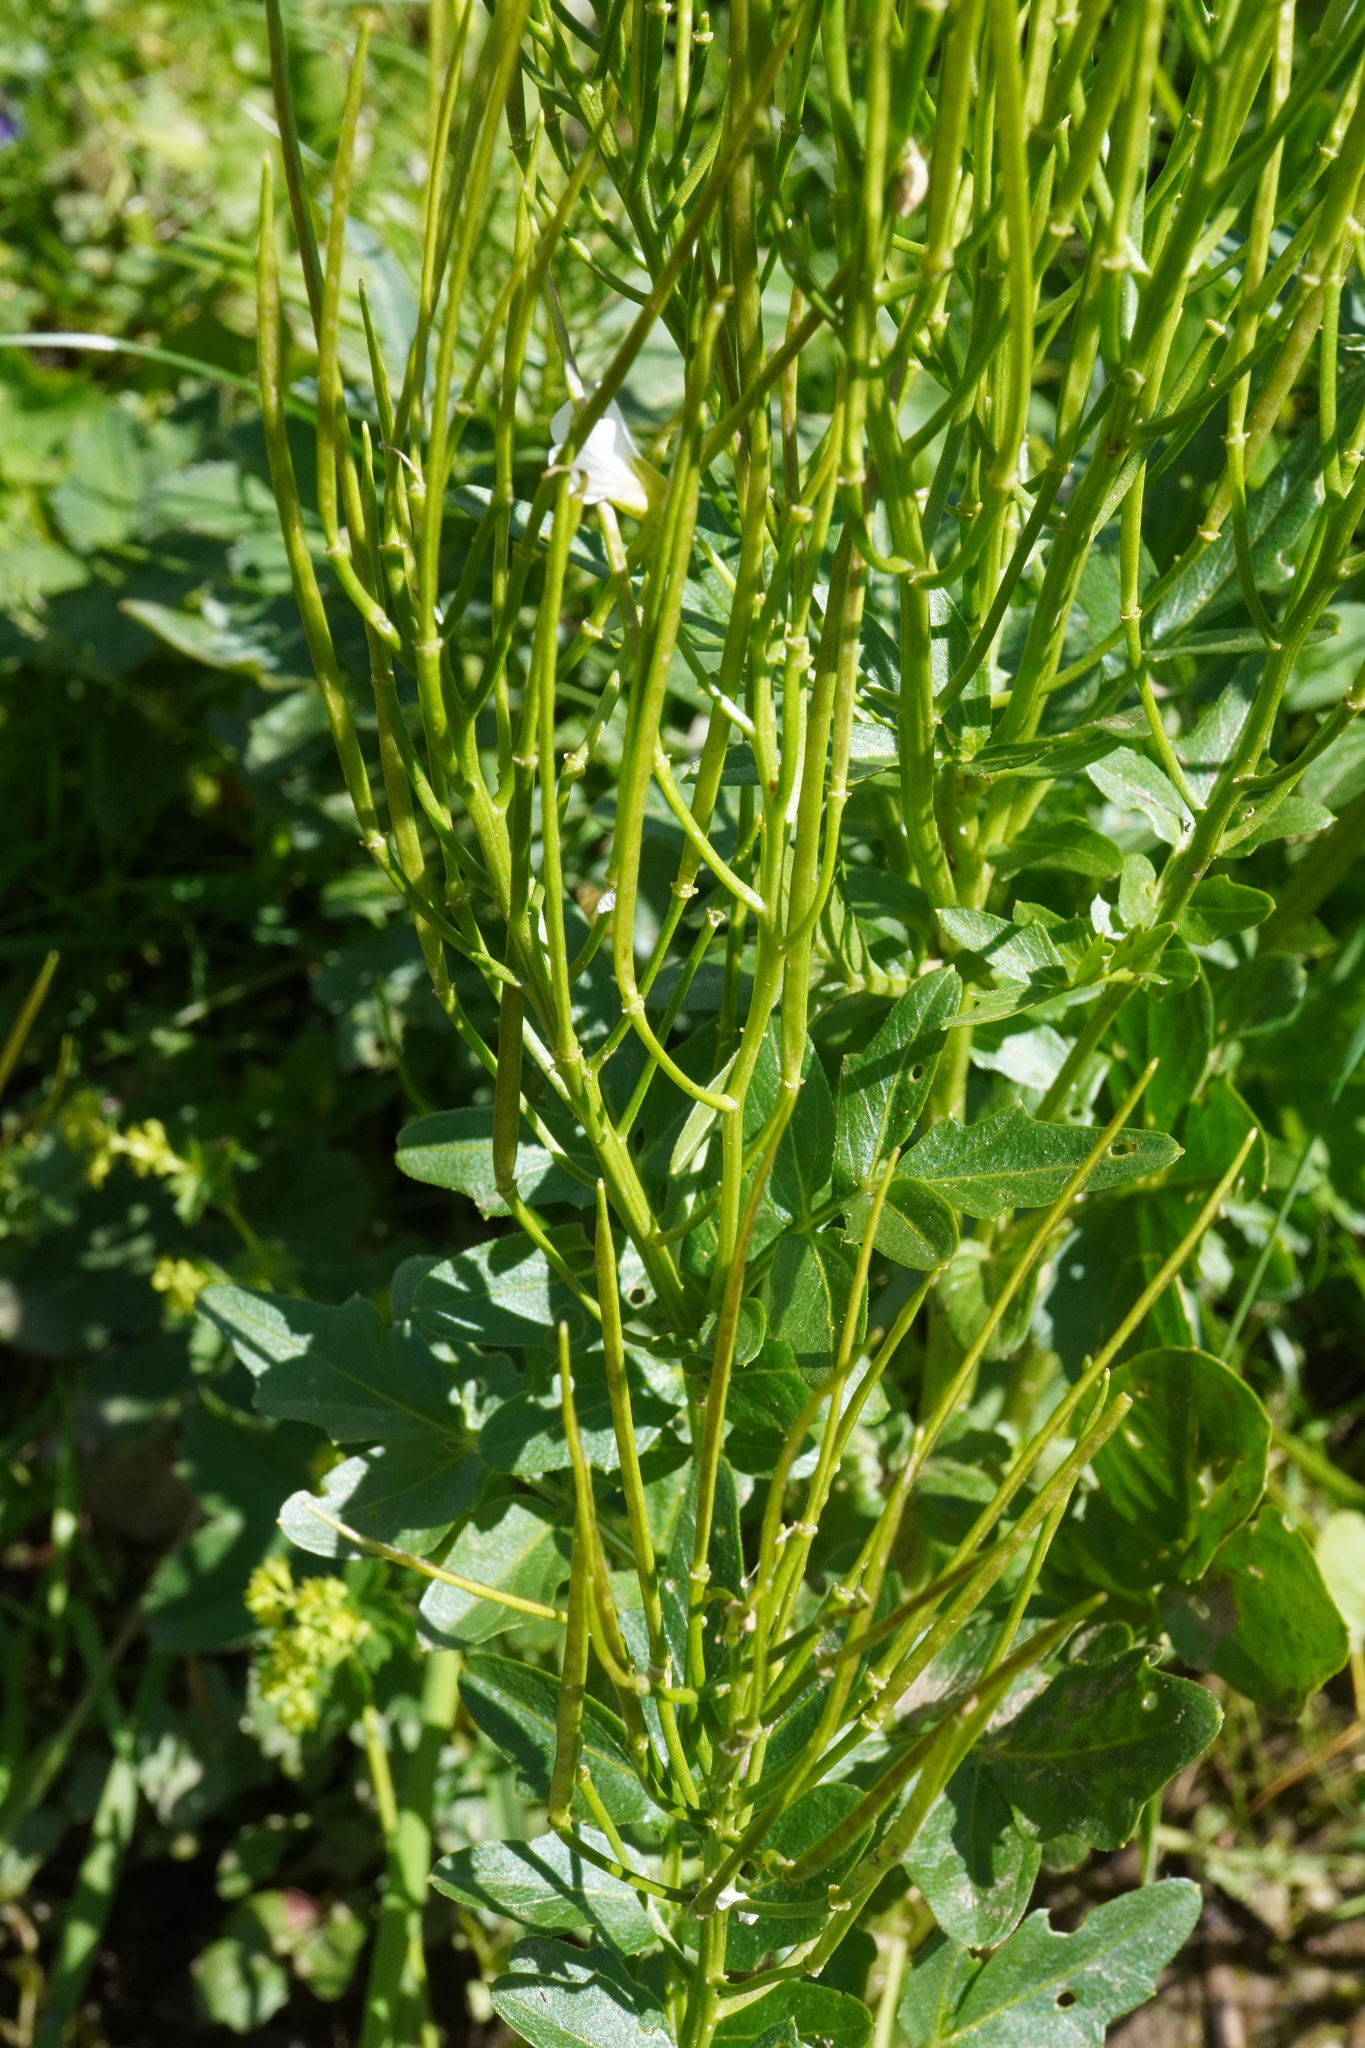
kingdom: Plantae
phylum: Tracheophyta
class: Magnoliopsida
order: Brassicales
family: Brassicaceae
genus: Cardamine
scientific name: Cardamine amara
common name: Large bitter-cress
